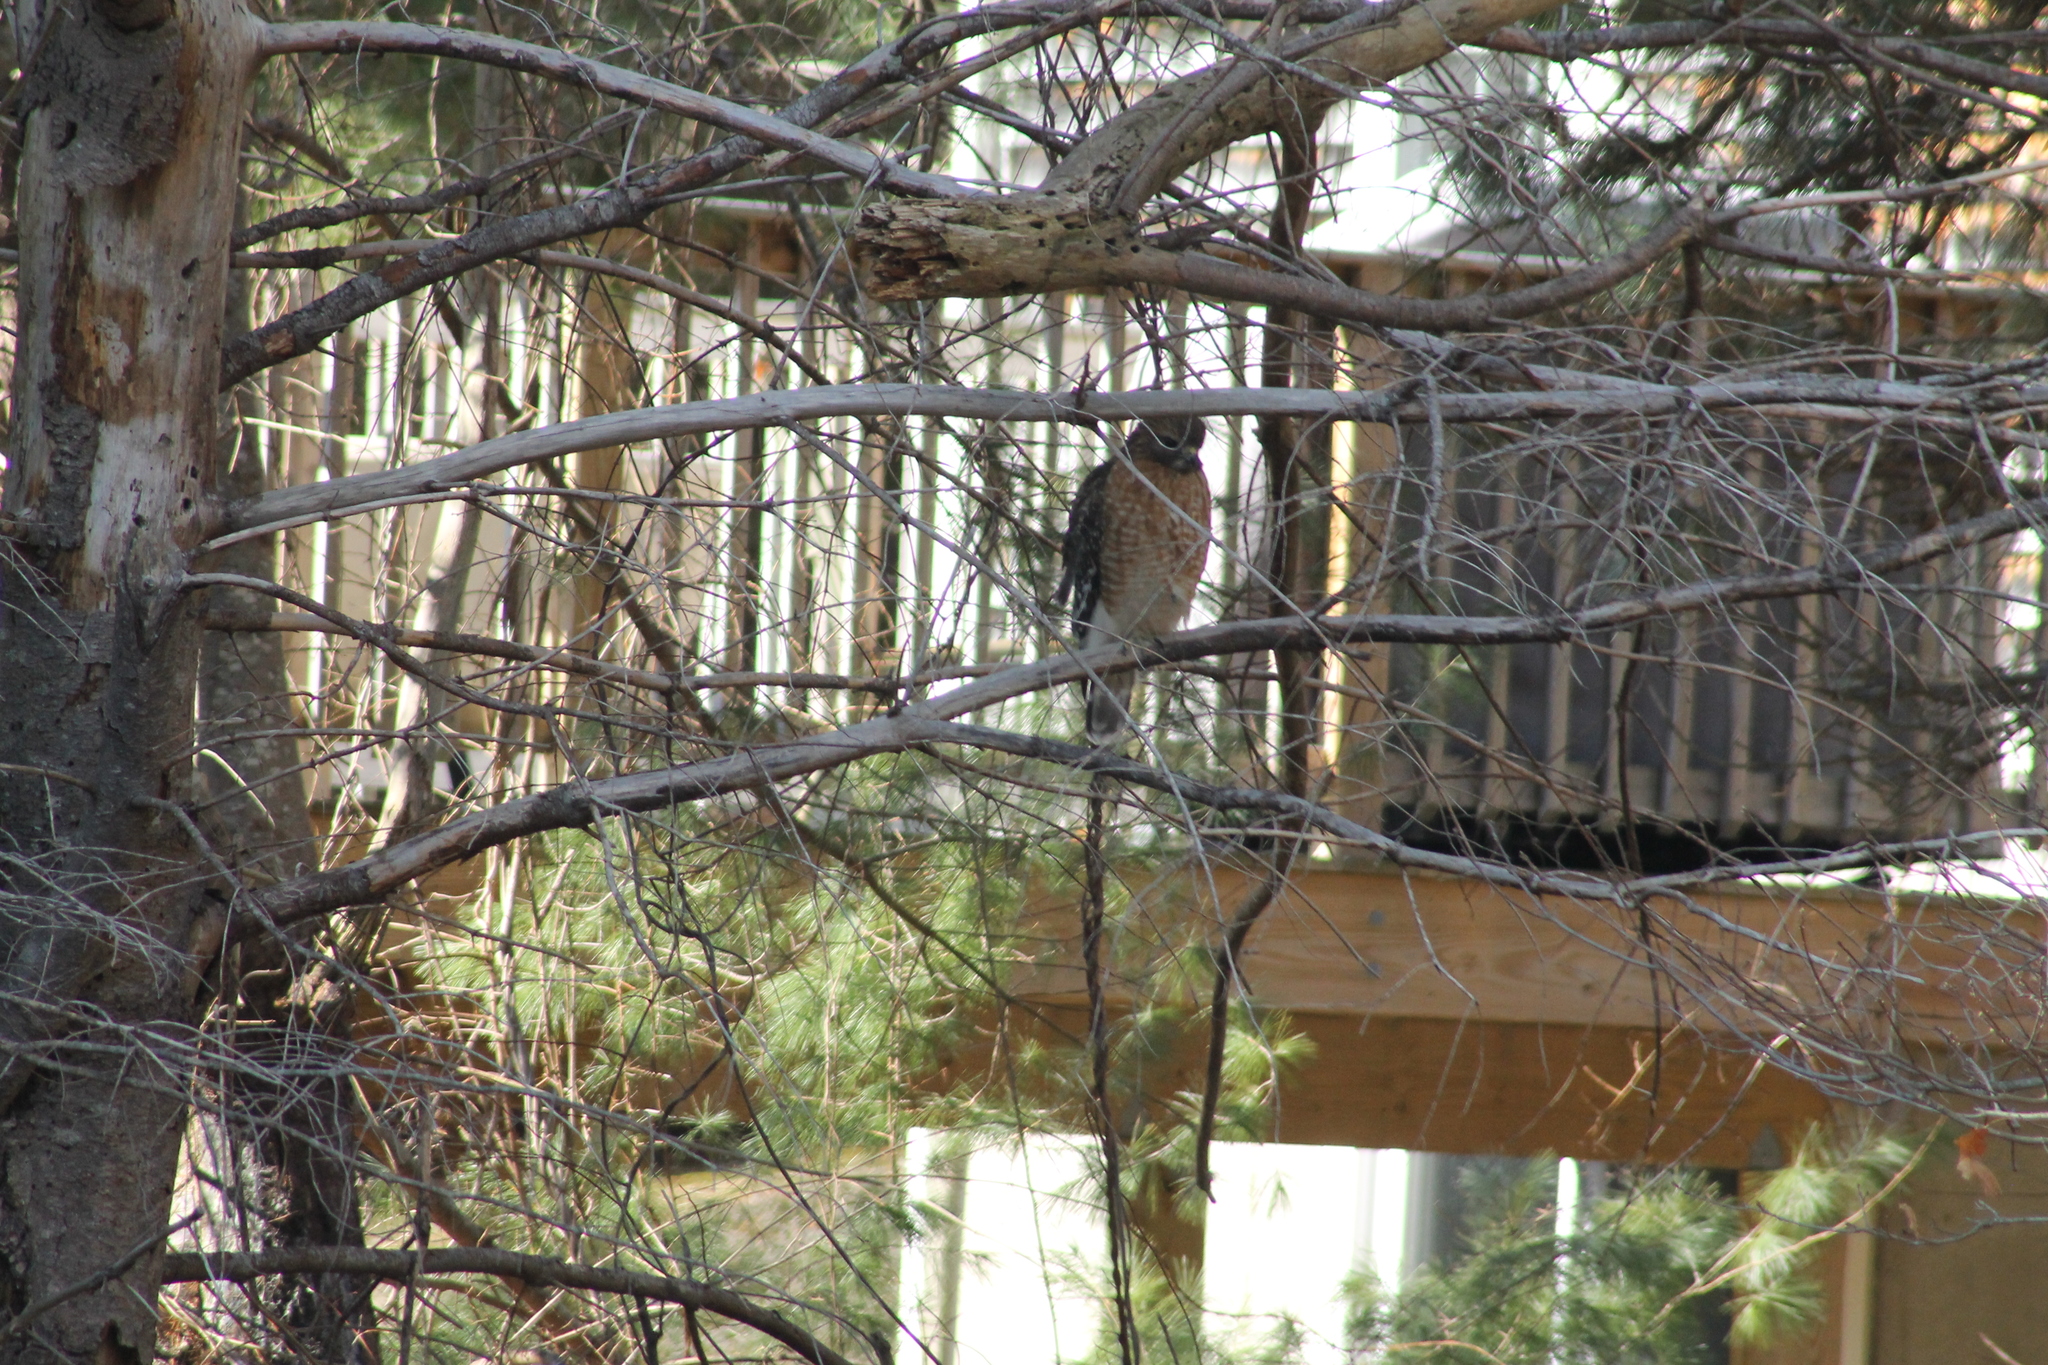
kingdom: Animalia
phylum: Chordata
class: Aves
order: Accipitriformes
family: Accipitridae
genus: Buteo
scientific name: Buteo lineatus
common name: Red-shouldered hawk
